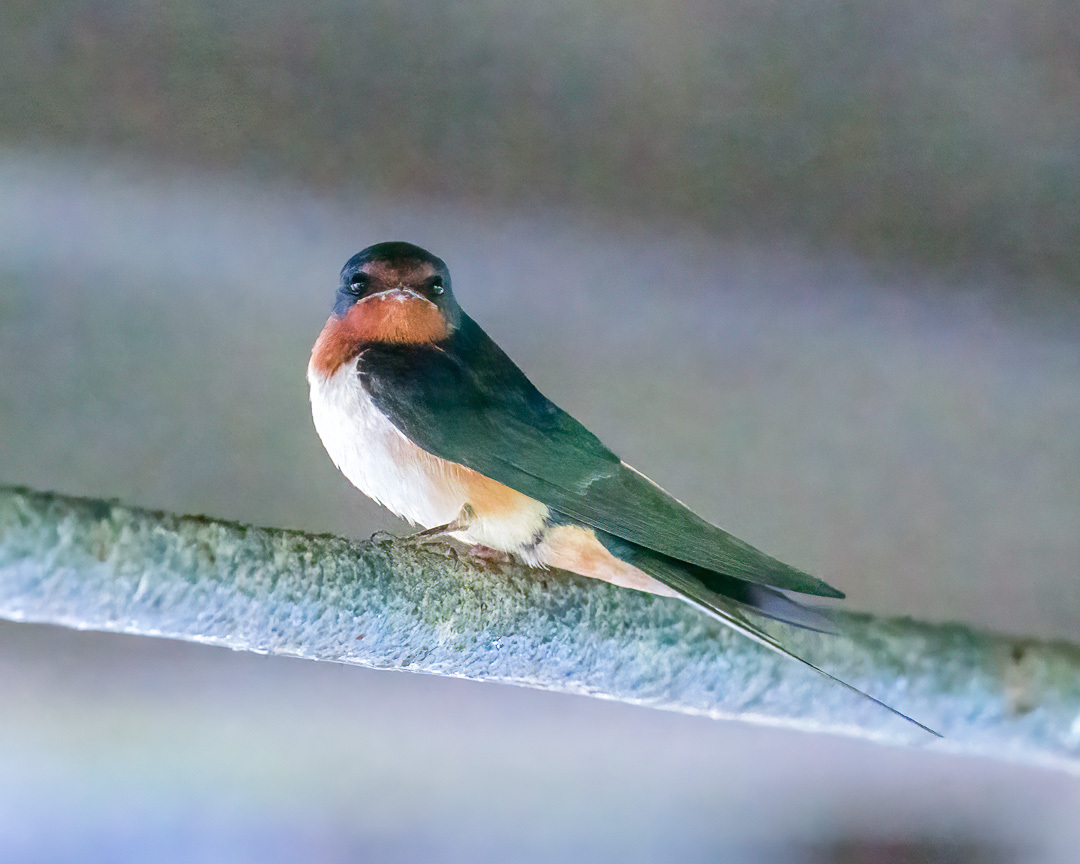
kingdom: Animalia
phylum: Chordata
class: Aves
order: Passeriformes
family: Hirundinidae
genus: Hirundo
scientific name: Hirundo rustica
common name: Barn swallow
